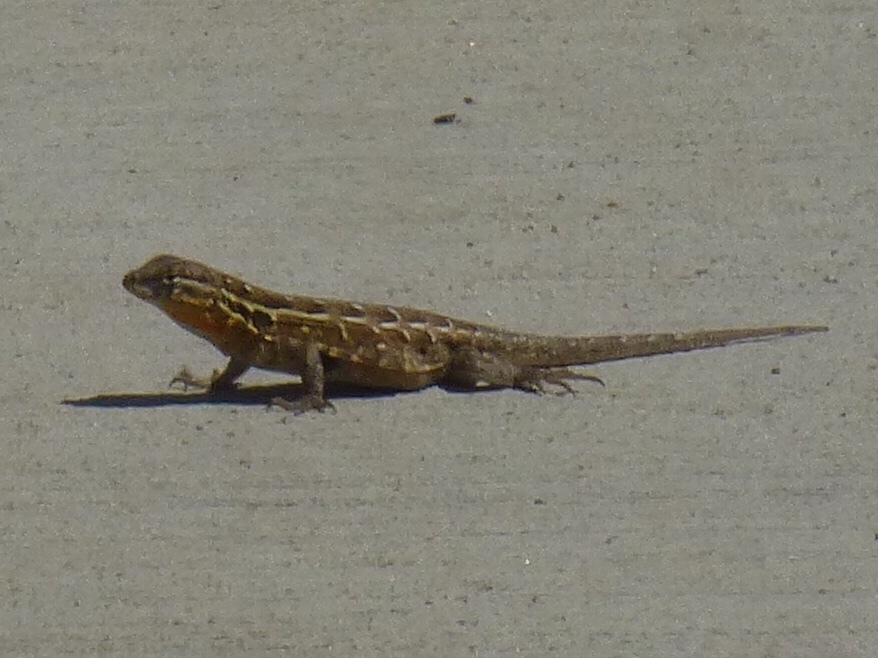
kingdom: Animalia
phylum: Chordata
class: Squamata
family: Phrynosomatidae
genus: Uta
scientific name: Uta stansburiana
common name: Side-blotched lizard
